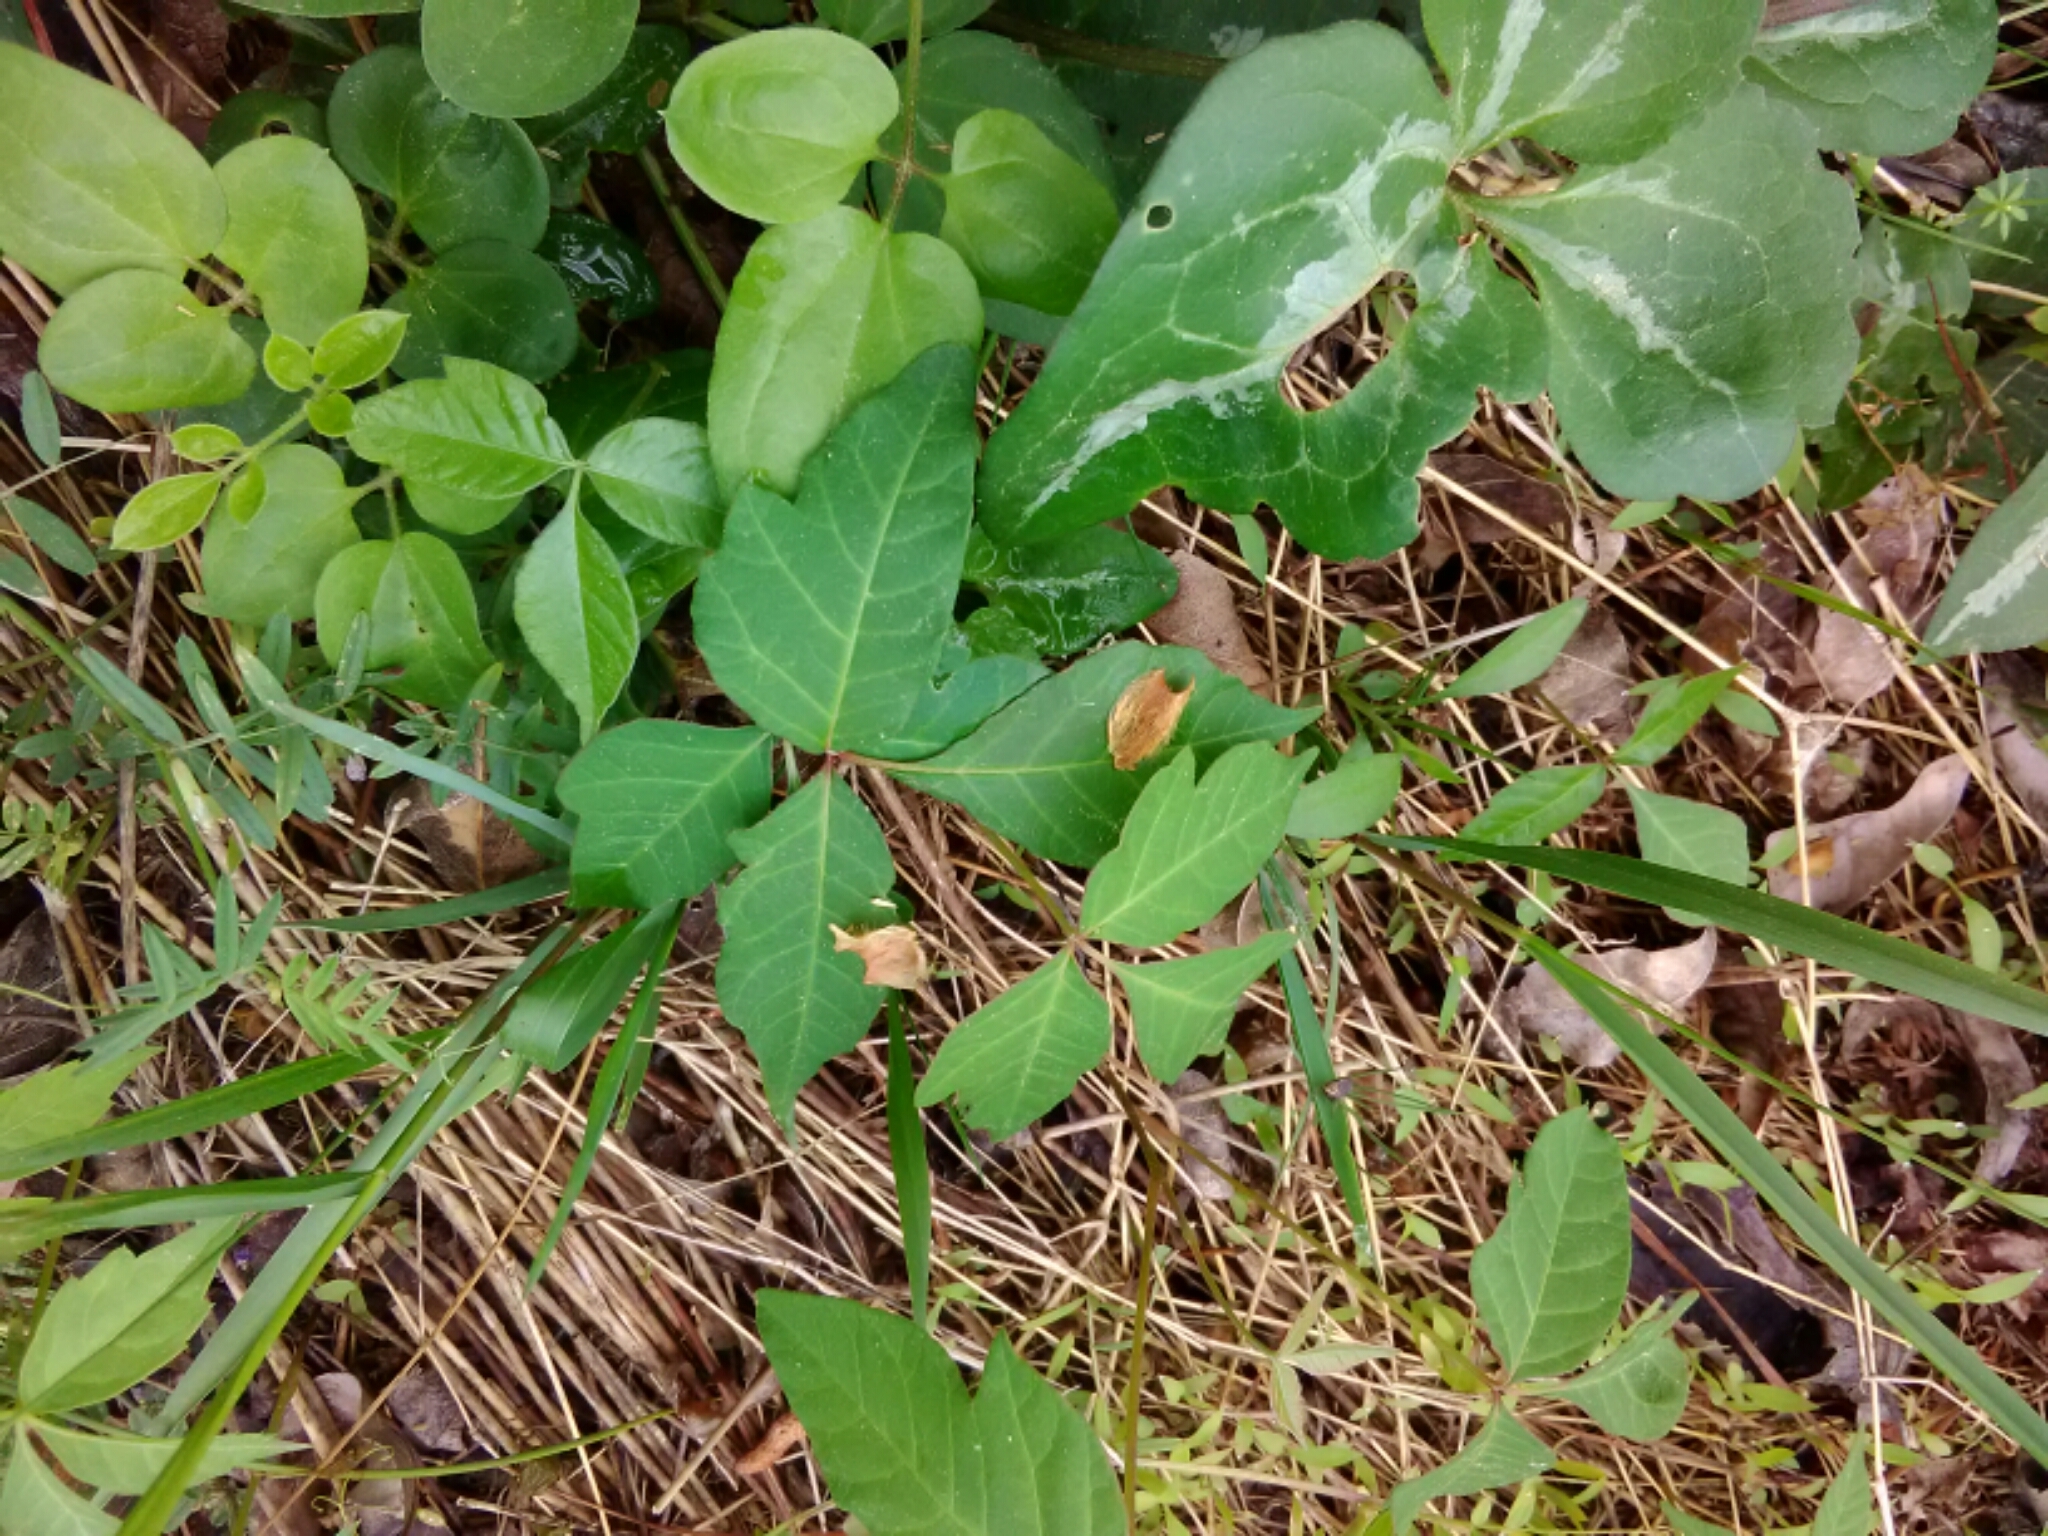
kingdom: Plantae
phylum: Tracheophyta
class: Magnoliopsida
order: Sapindales
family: Anacardiaceae
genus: Toxicodendron
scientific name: Toxicodendron radicans
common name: Poison ivy
